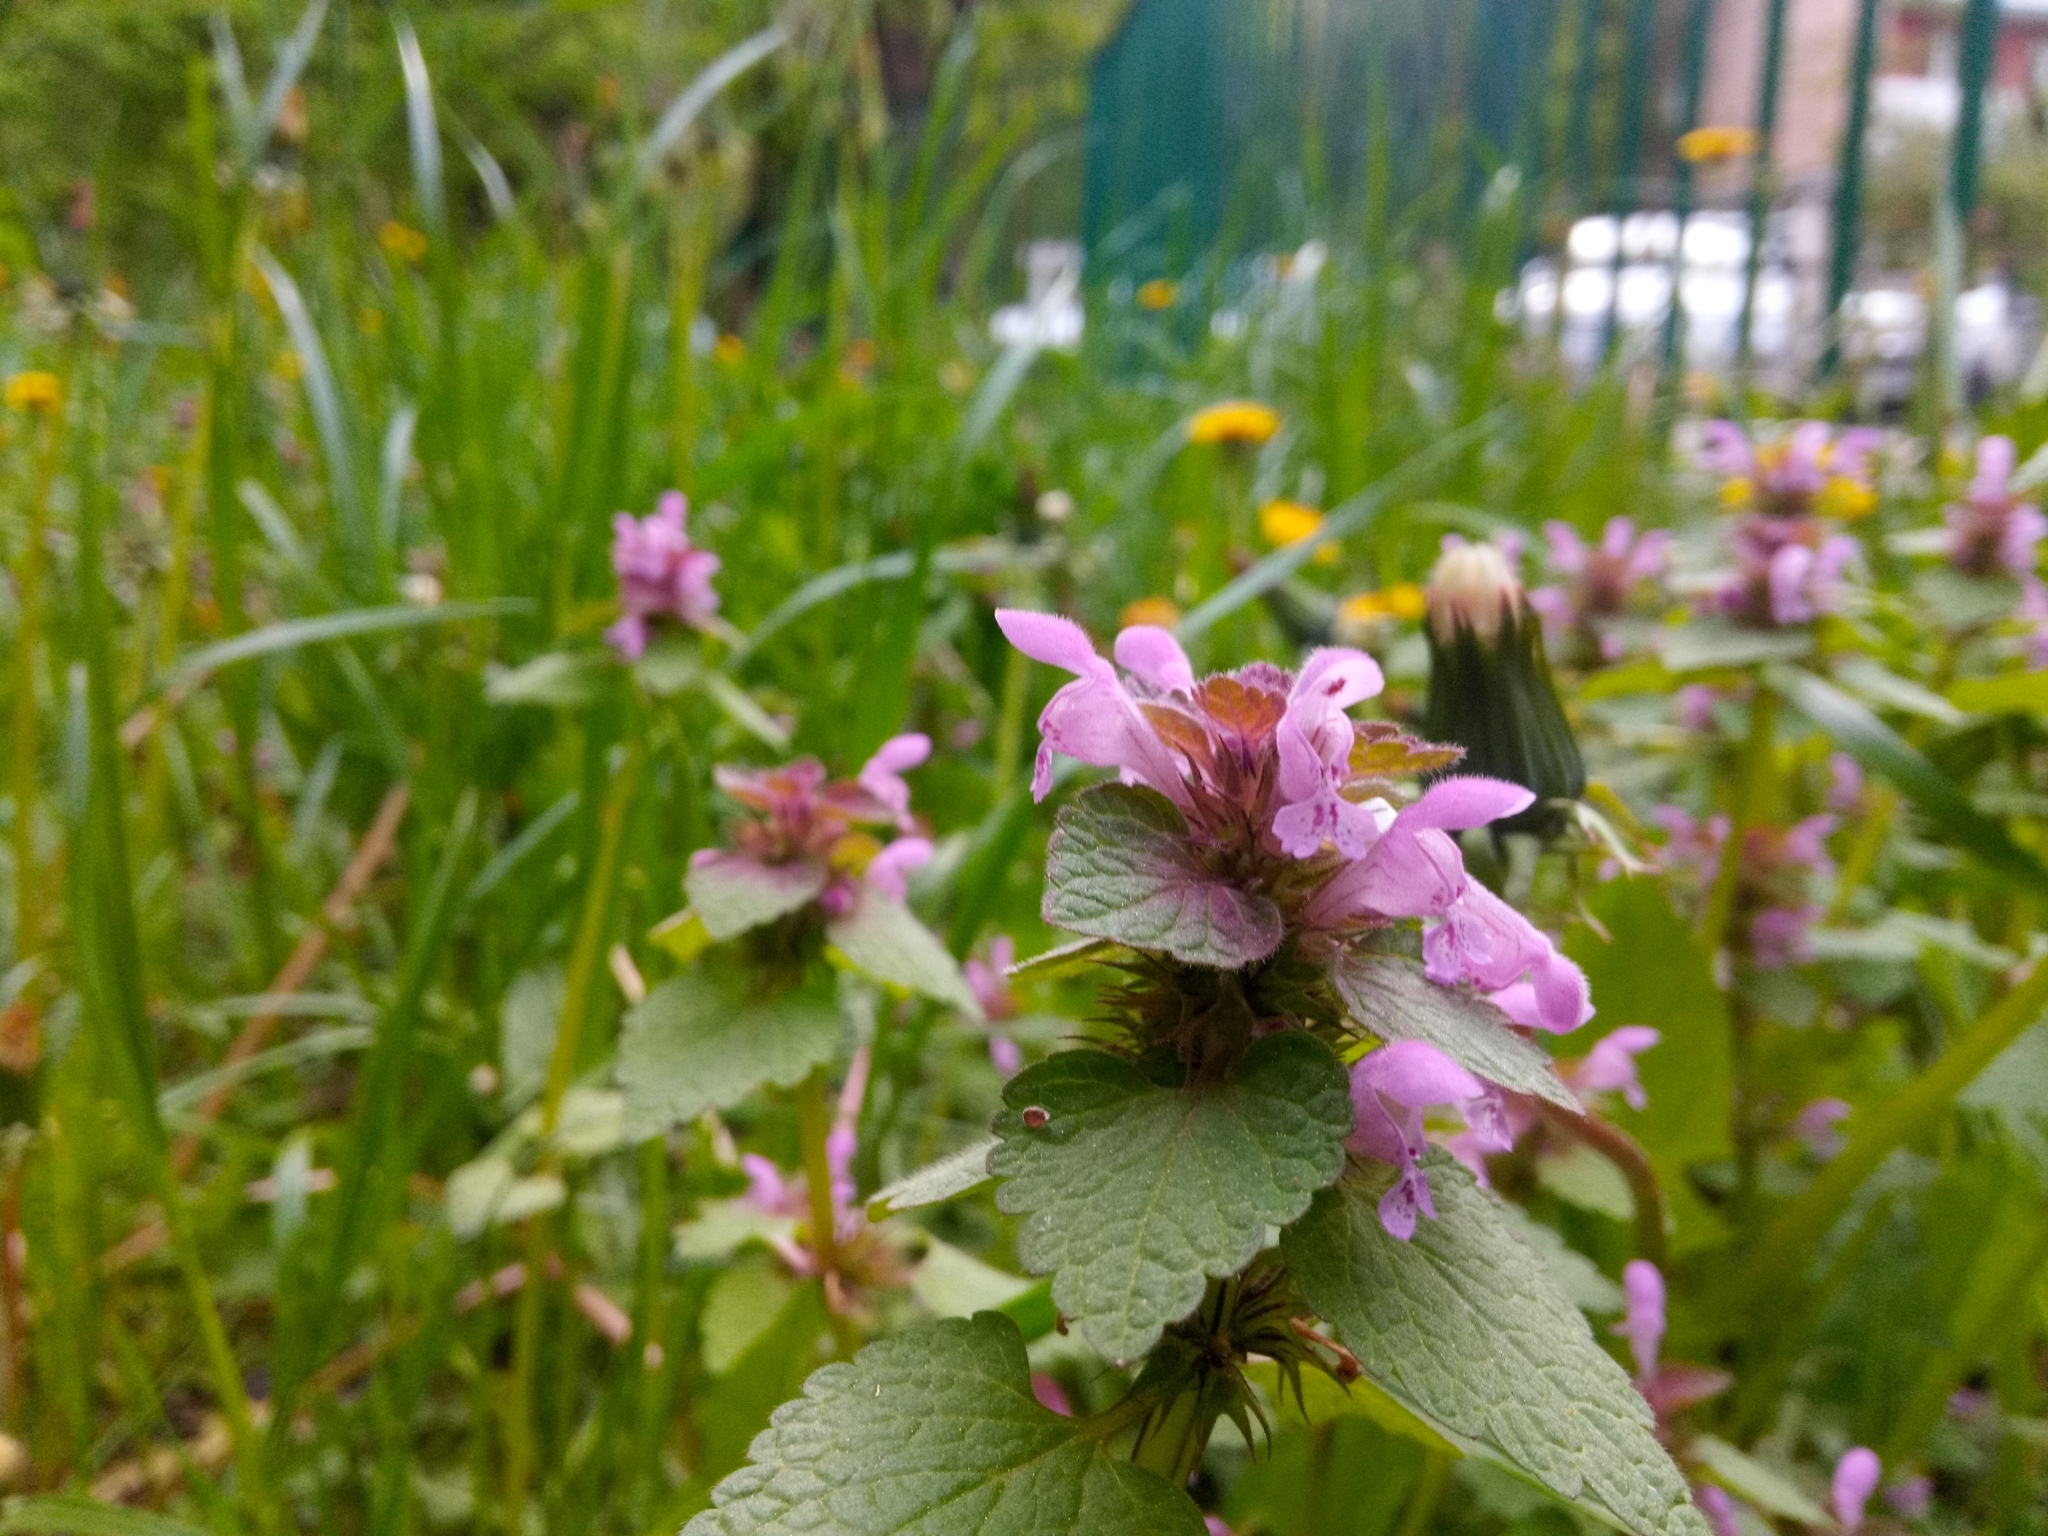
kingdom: Plantae
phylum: Tracheophyta
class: Magnoliopsida
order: Lamiales
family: Lamiaceae
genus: Lamium
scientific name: Lamium purpureum
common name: Red dead-nettle
